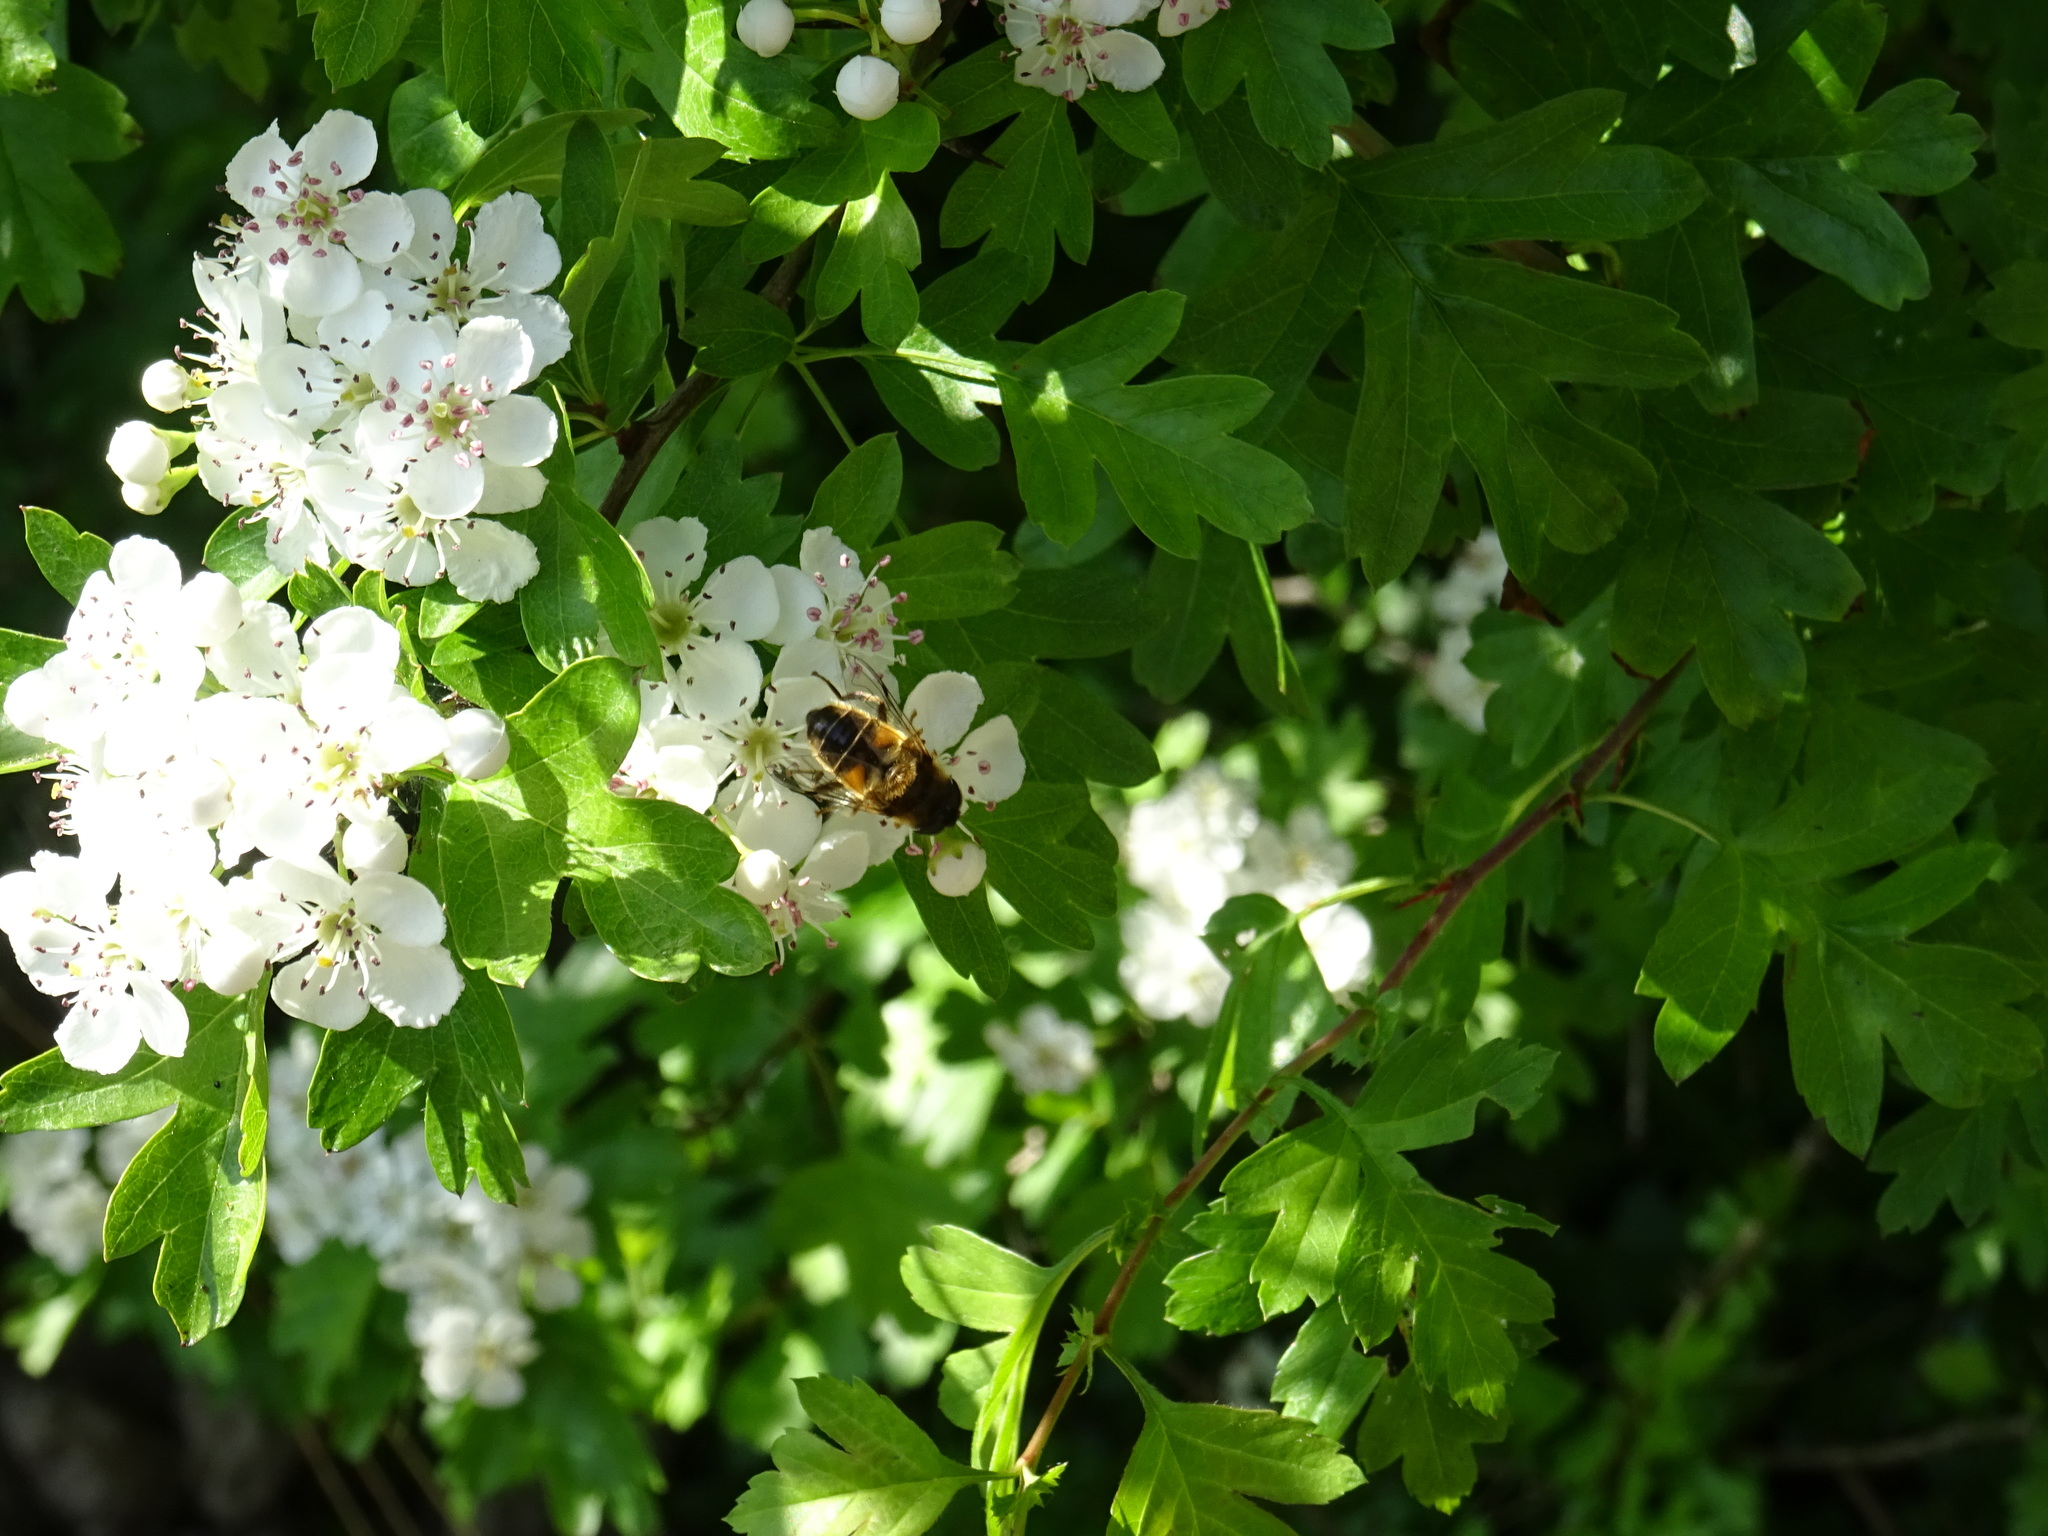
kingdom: Animalia
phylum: Arthropoda
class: Insecta
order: Diptera
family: Syrphidae
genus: Eristalis
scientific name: Eristalis pertinax
